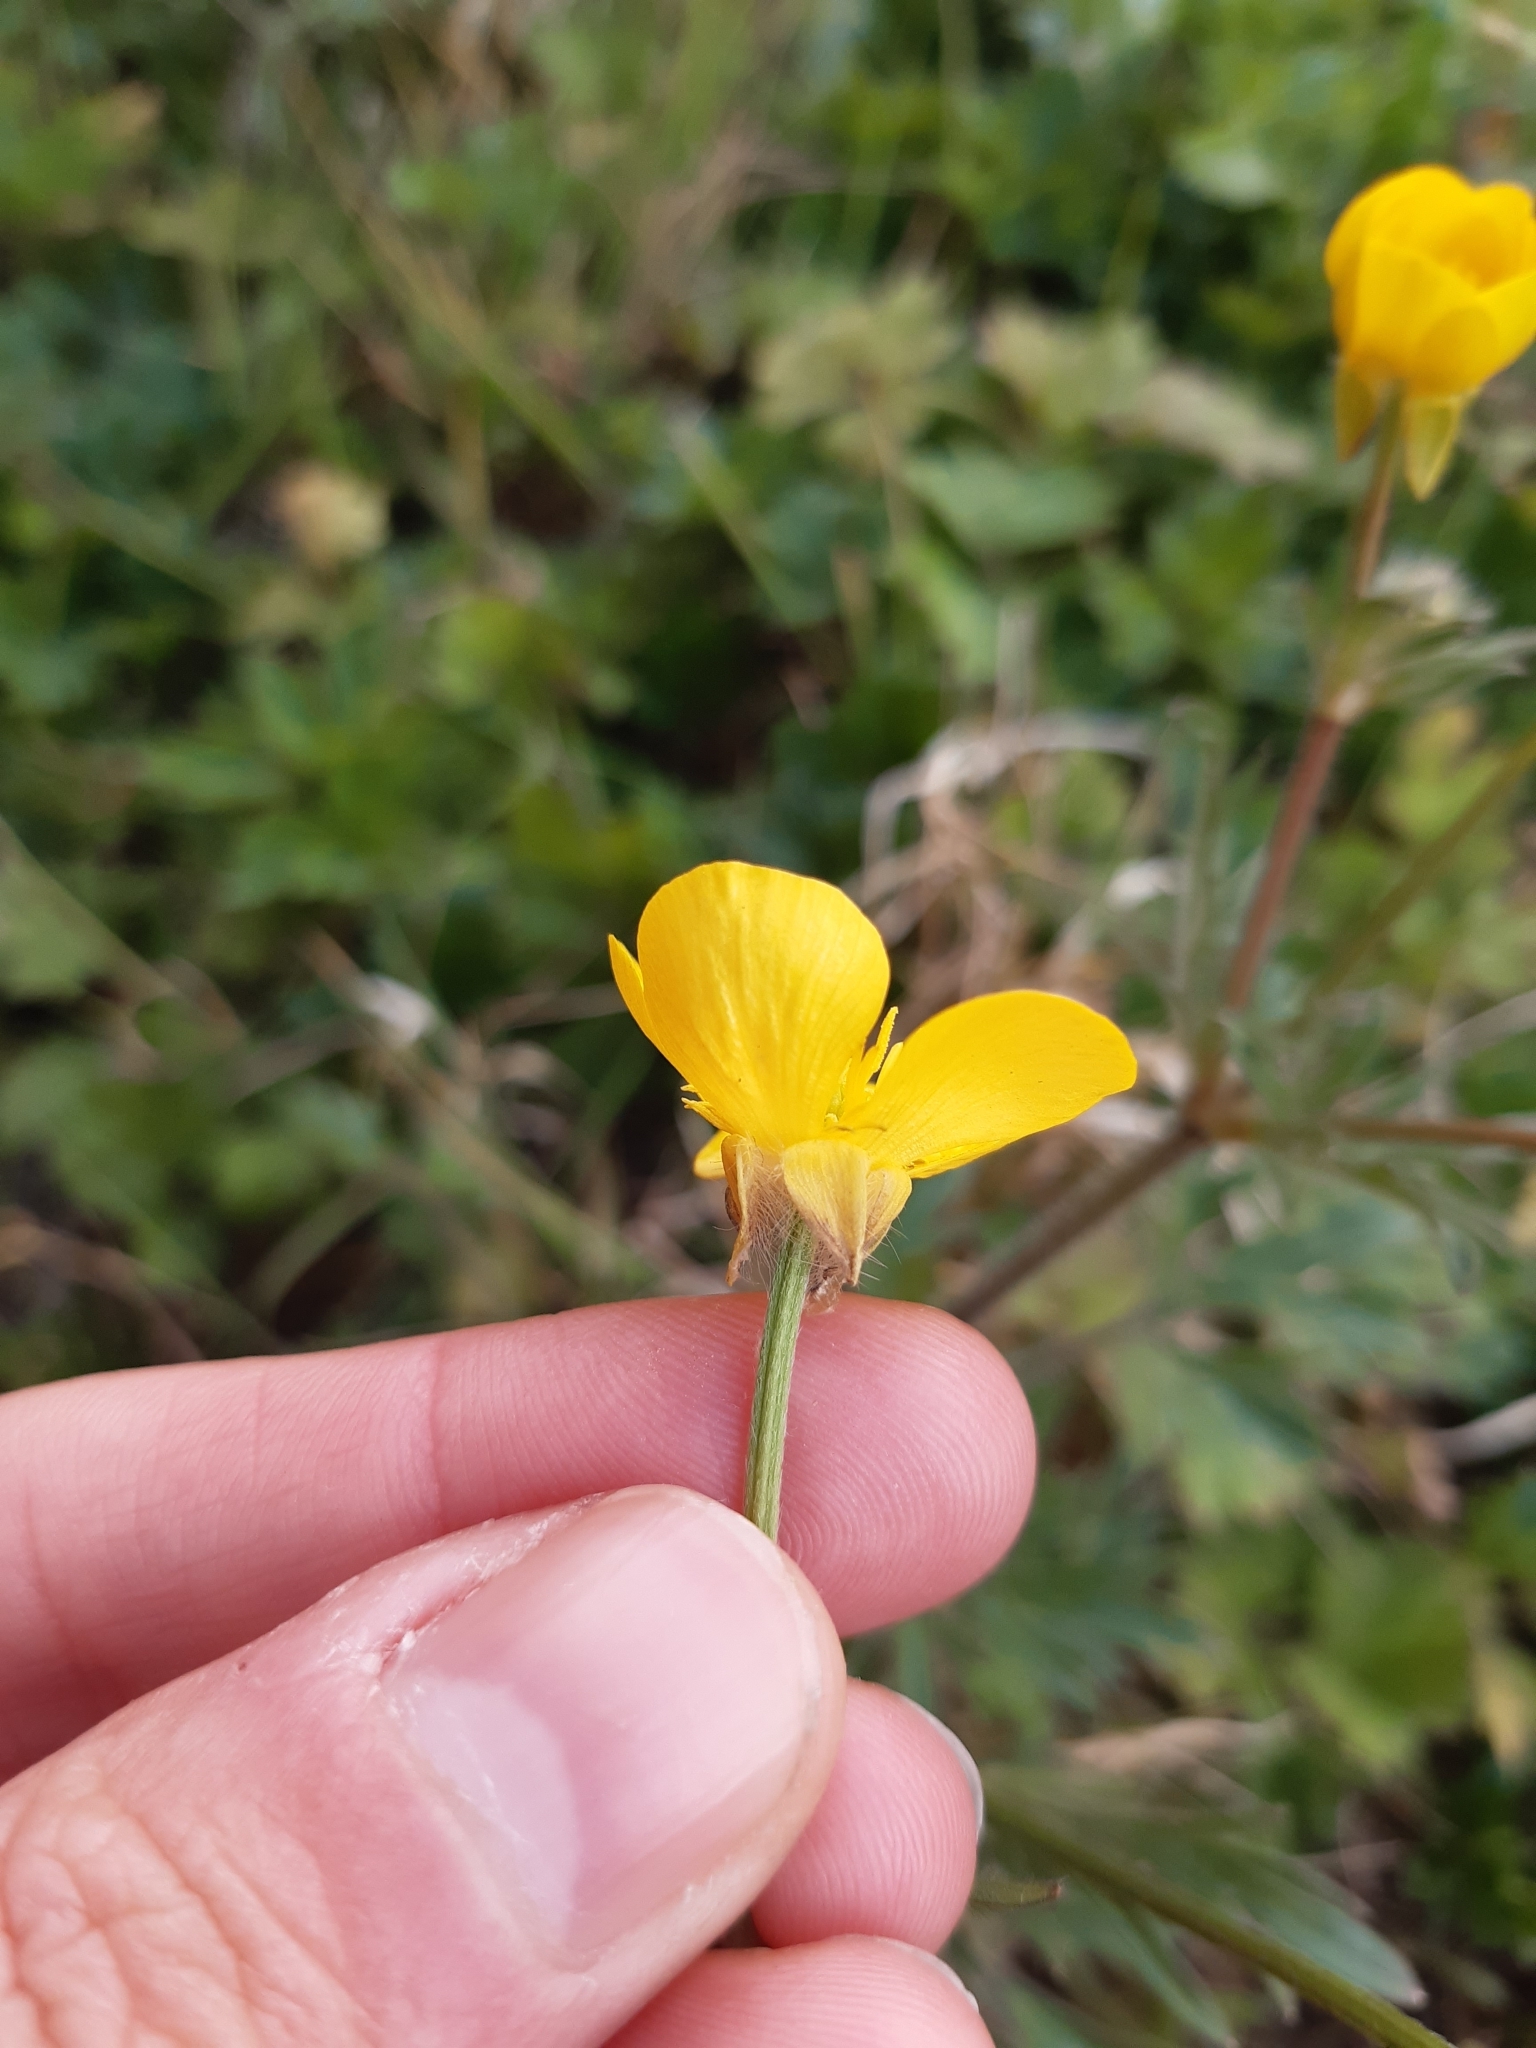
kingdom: Plantae
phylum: Tracheophyta
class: Magnoliopsida
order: Ranunculales
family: Ranunculaceae
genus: Ranunculus
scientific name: Ranunculus bulbosus
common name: Bulbous buttercup
